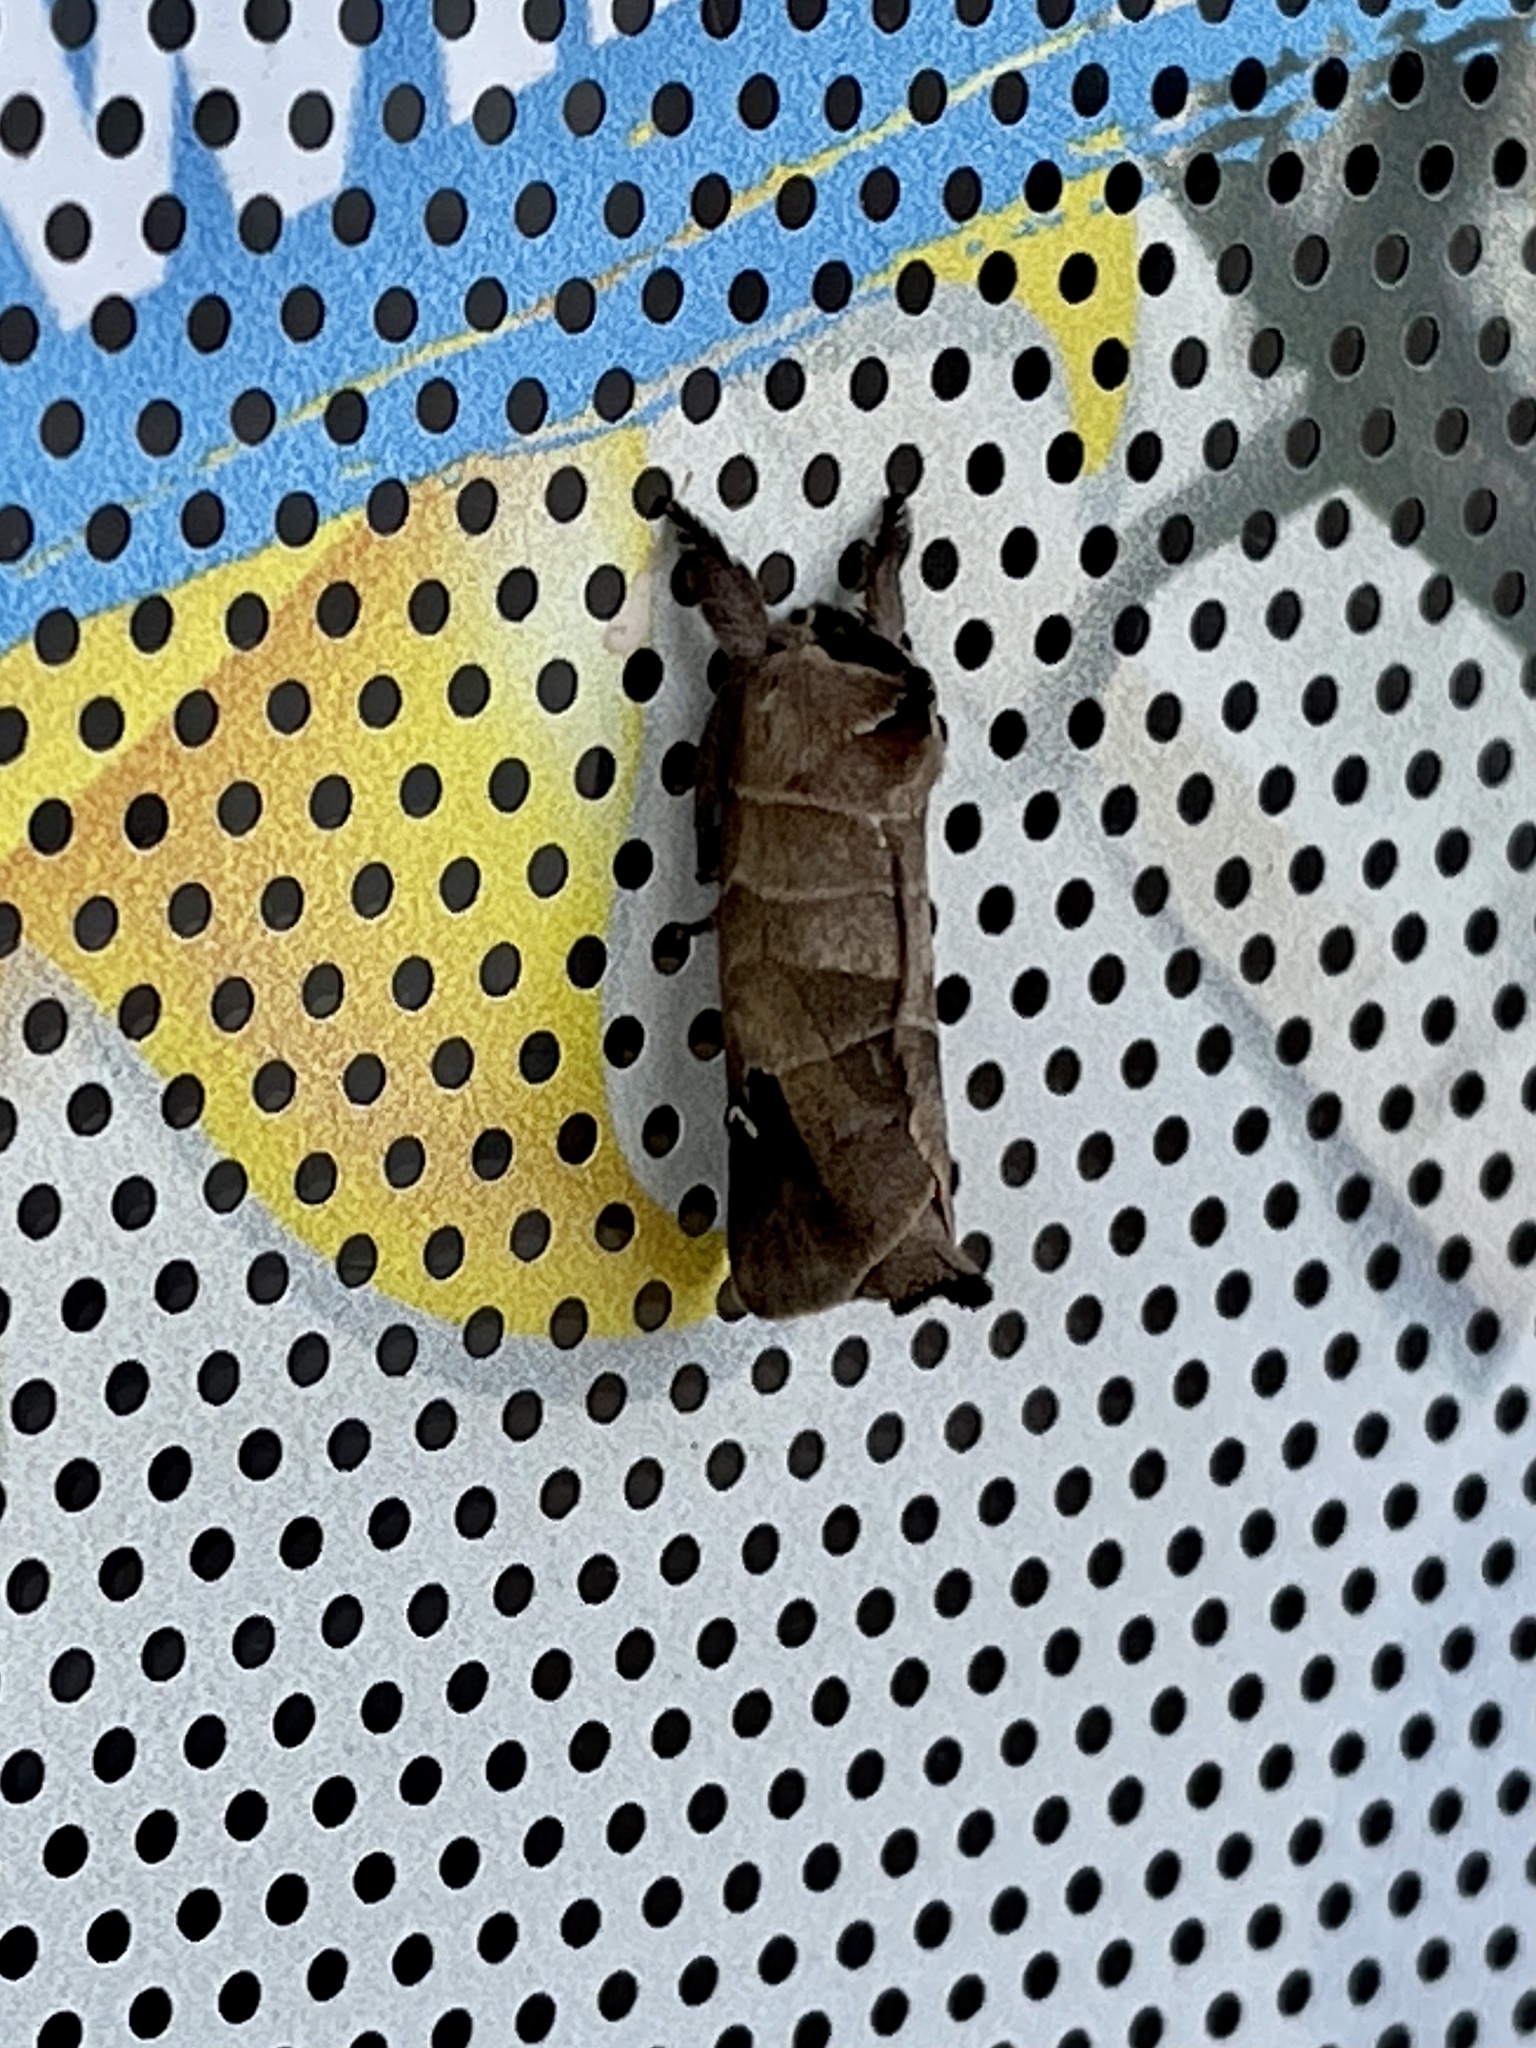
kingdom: Animalia
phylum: Arthropoda
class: Insecta
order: Lepidoptera
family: Notodontidae
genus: Clostera
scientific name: Clostera albosigma
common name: Sigmoid prominent
